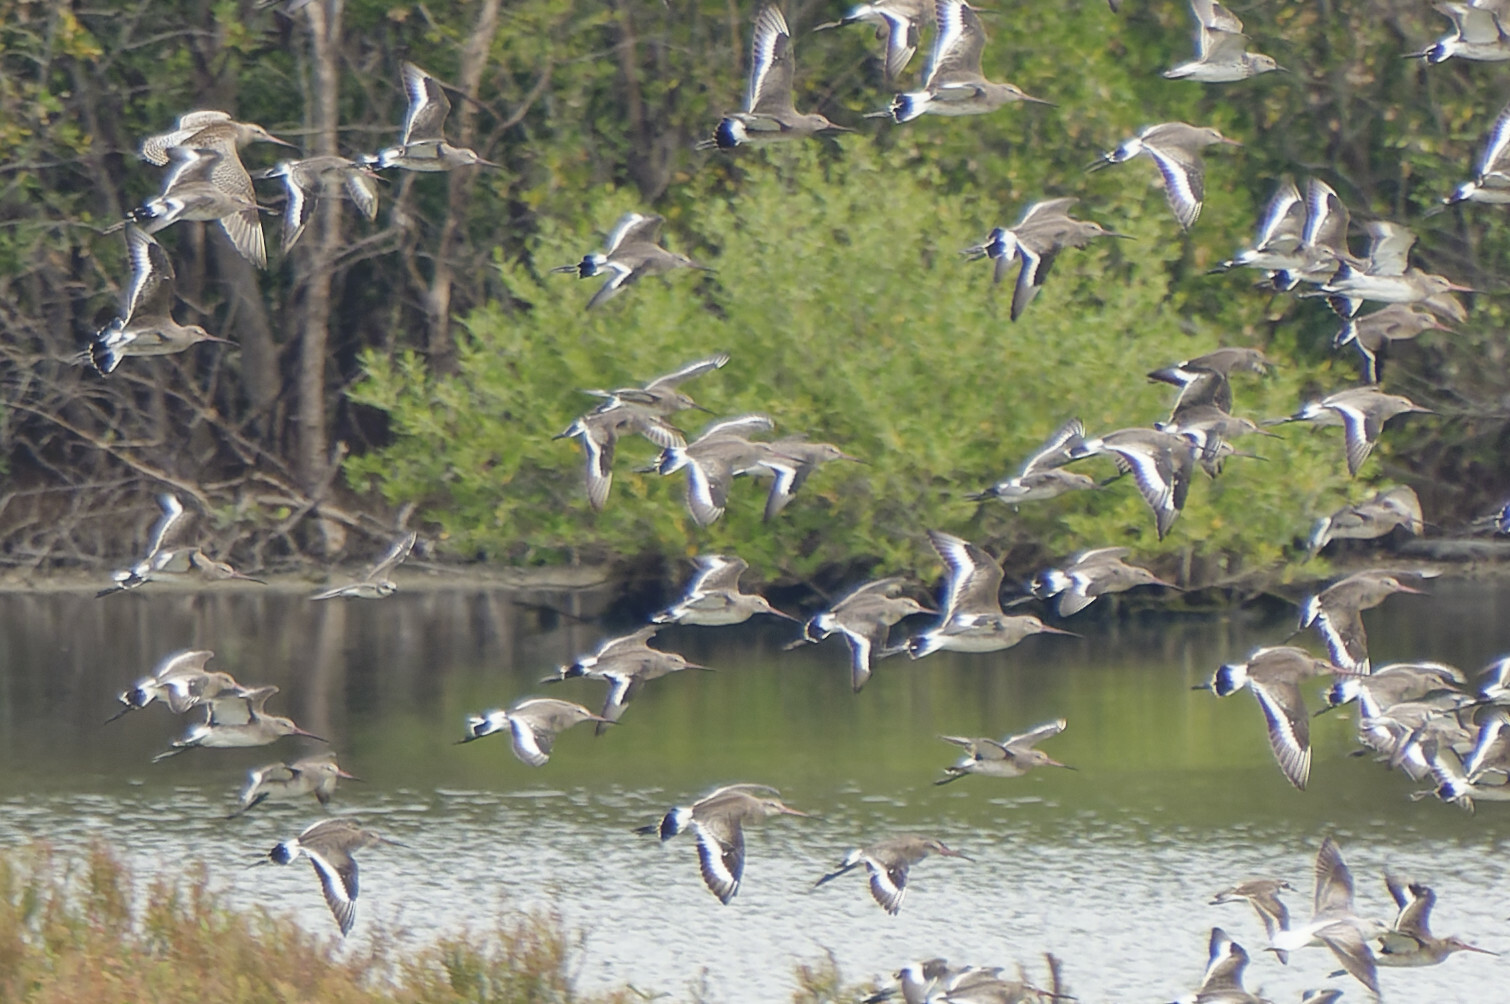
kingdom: Animalia
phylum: Chordata
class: Aves
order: Charadriiformes
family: Scolopacidae
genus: Limosa
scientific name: Limosa limosa
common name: Black-tailed godwit
